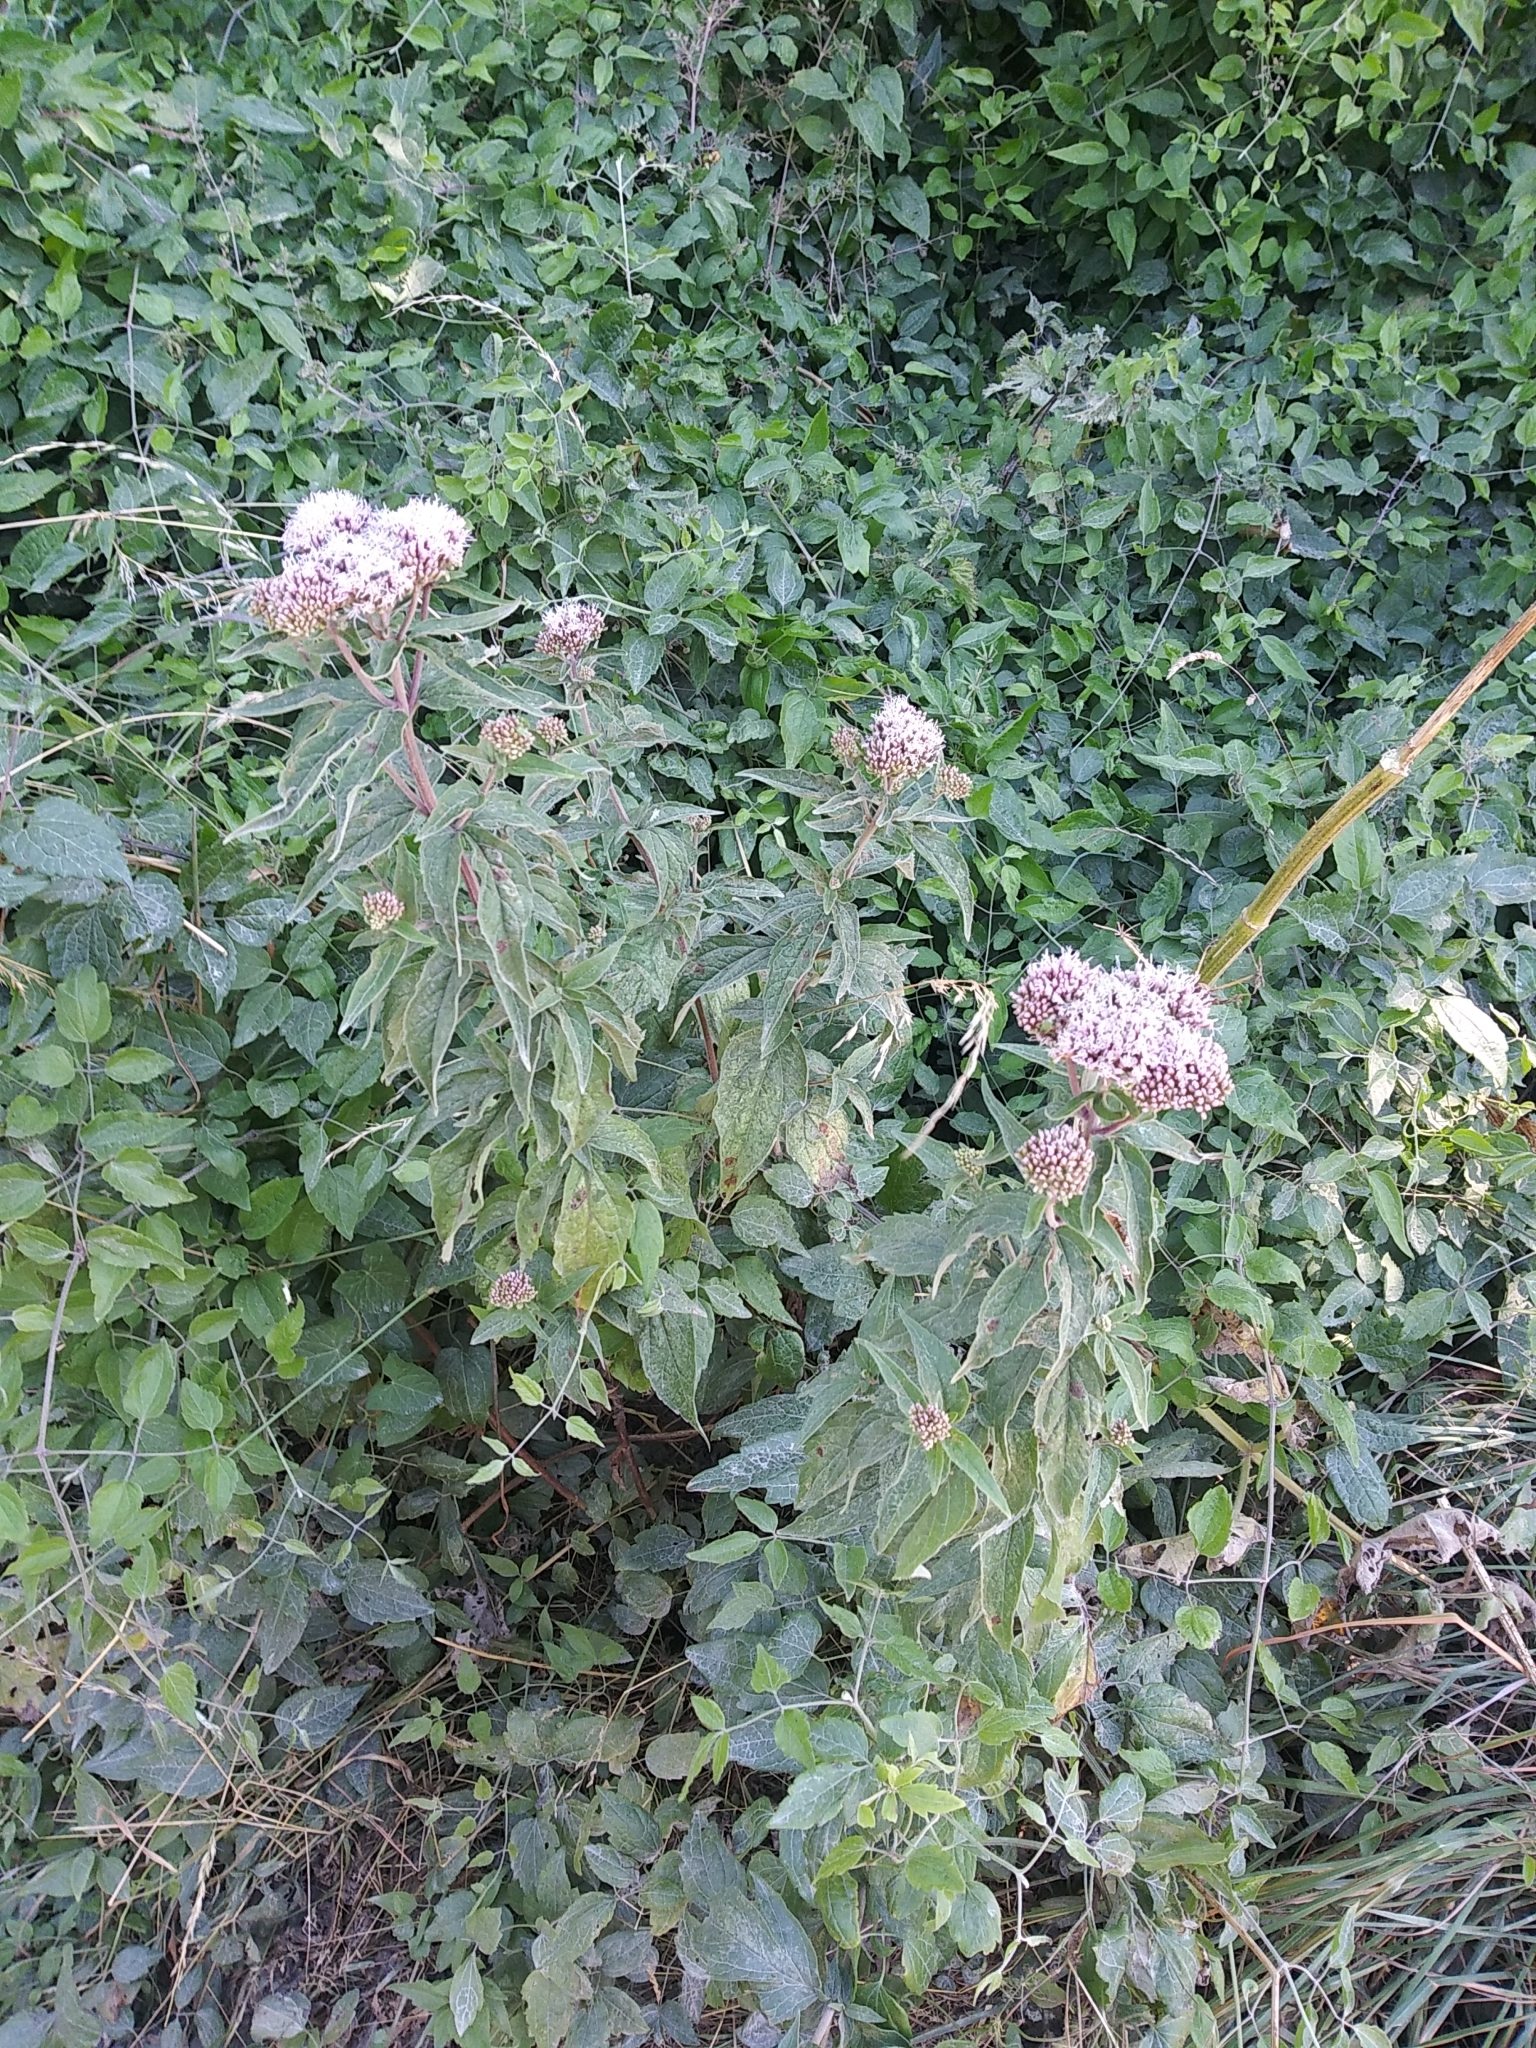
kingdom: Plantae
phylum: Tracheophyta
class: Magnoliopsida
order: Asterales
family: Asteraceae
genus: Eupatorium
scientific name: Eupatorium cannabinum
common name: Hemp-agrimony
